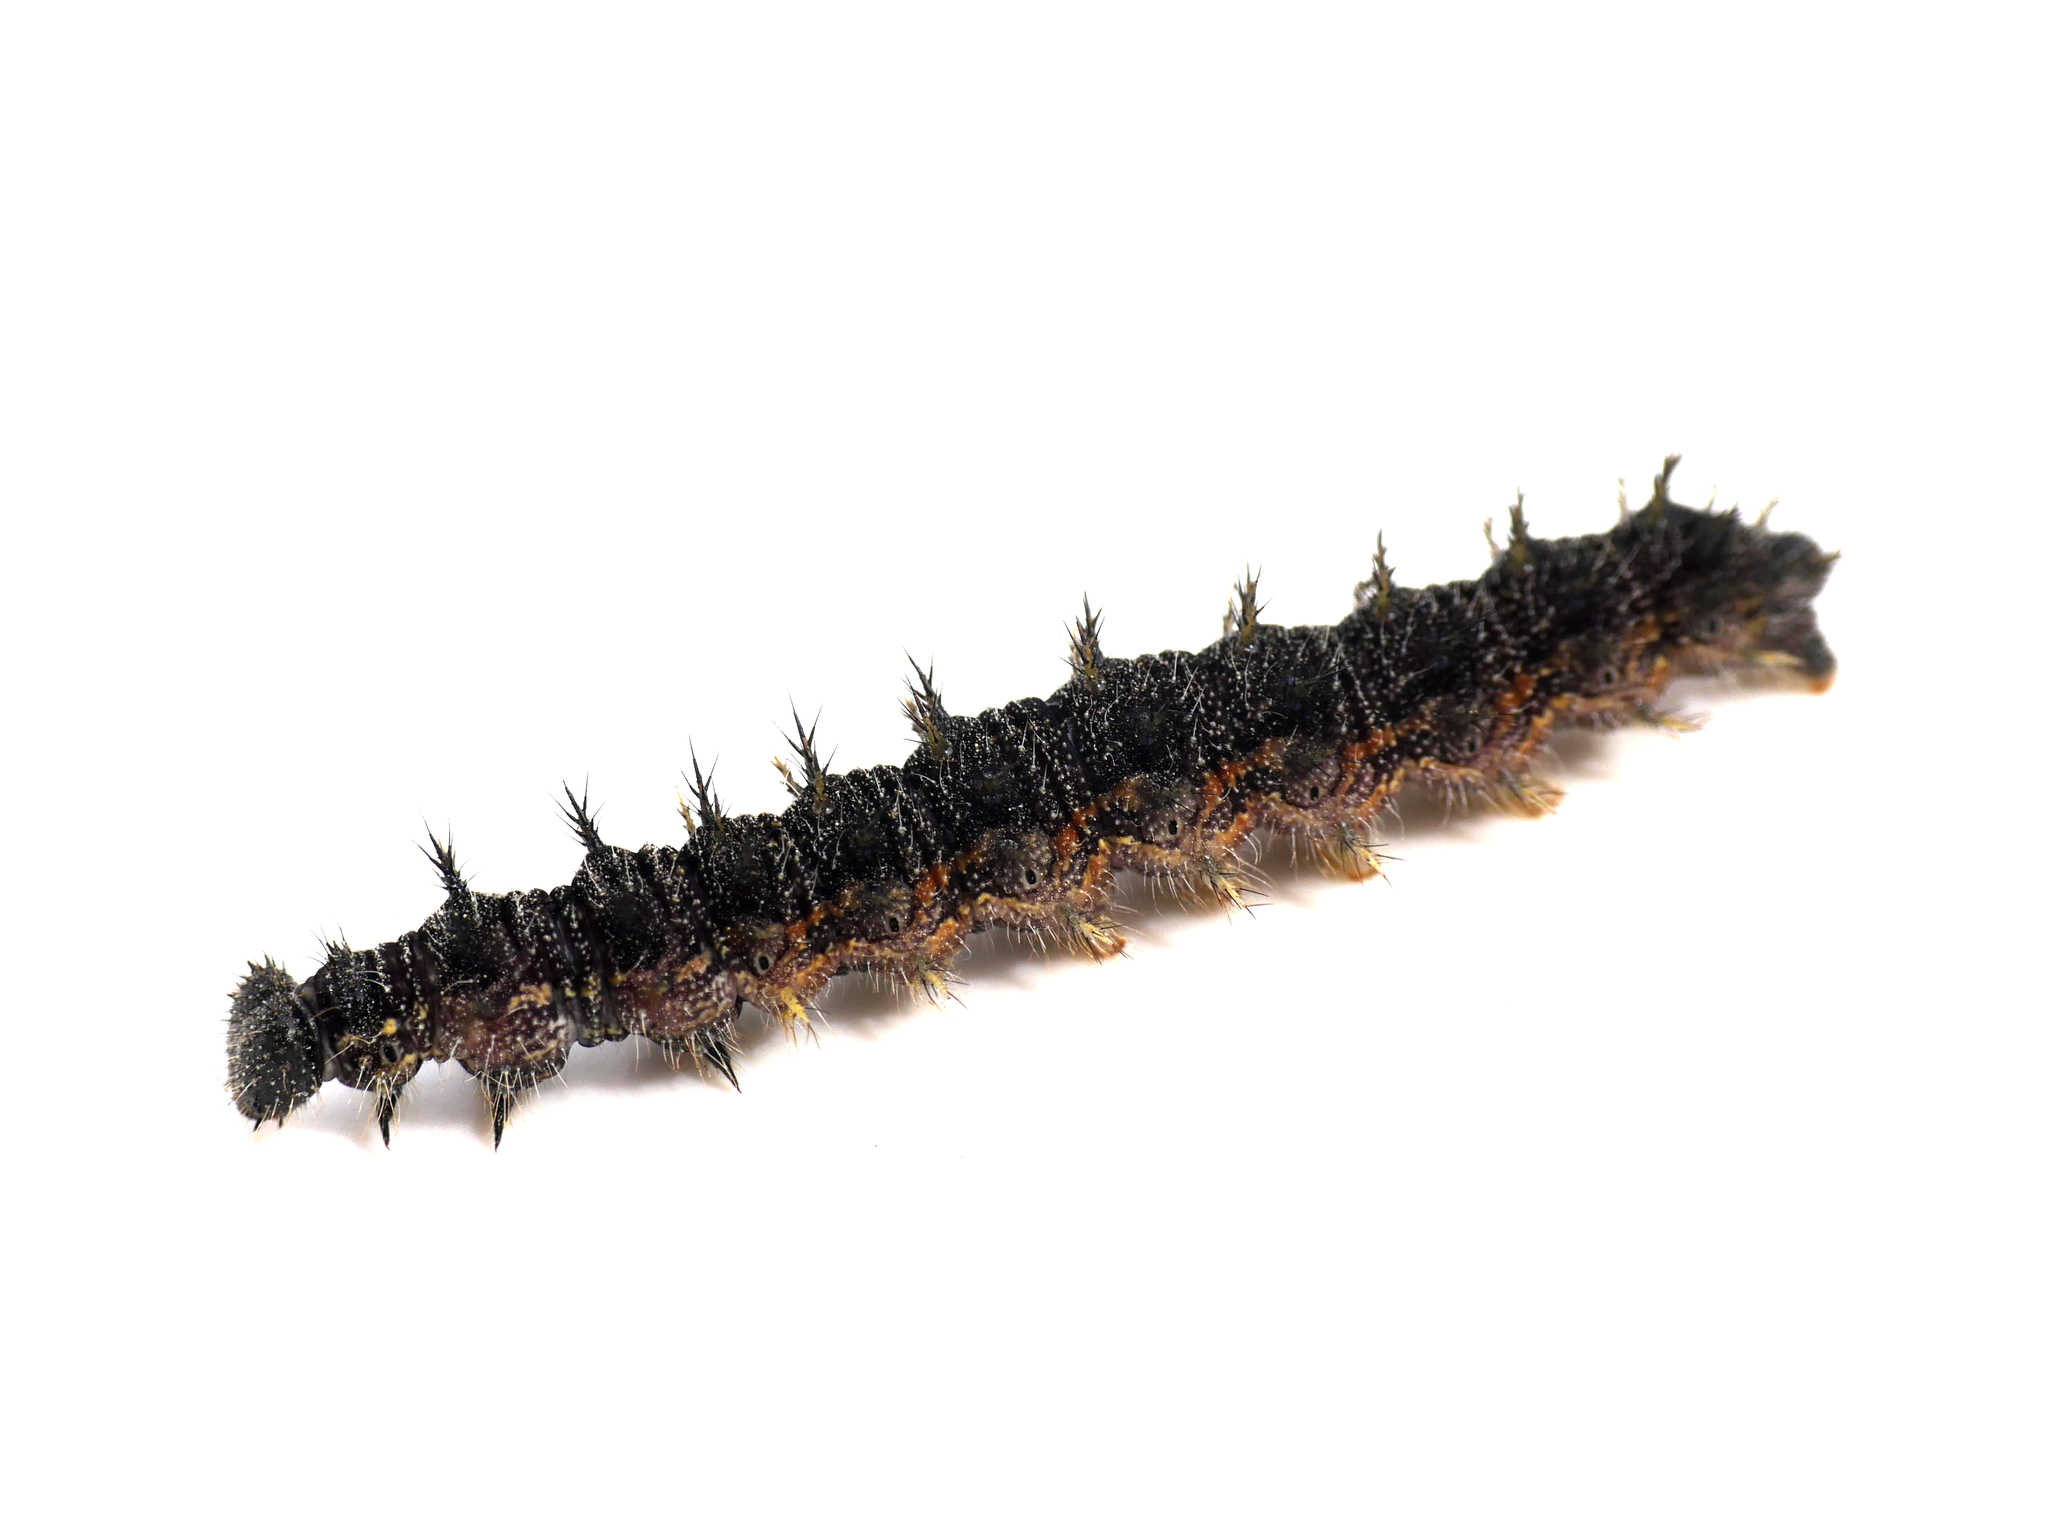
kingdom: Animalia
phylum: Arthropoda
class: Insecta
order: Lepidoptera
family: Nymphalidae
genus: Aglais
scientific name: Aglais urticae
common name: Small tortoiseshell
